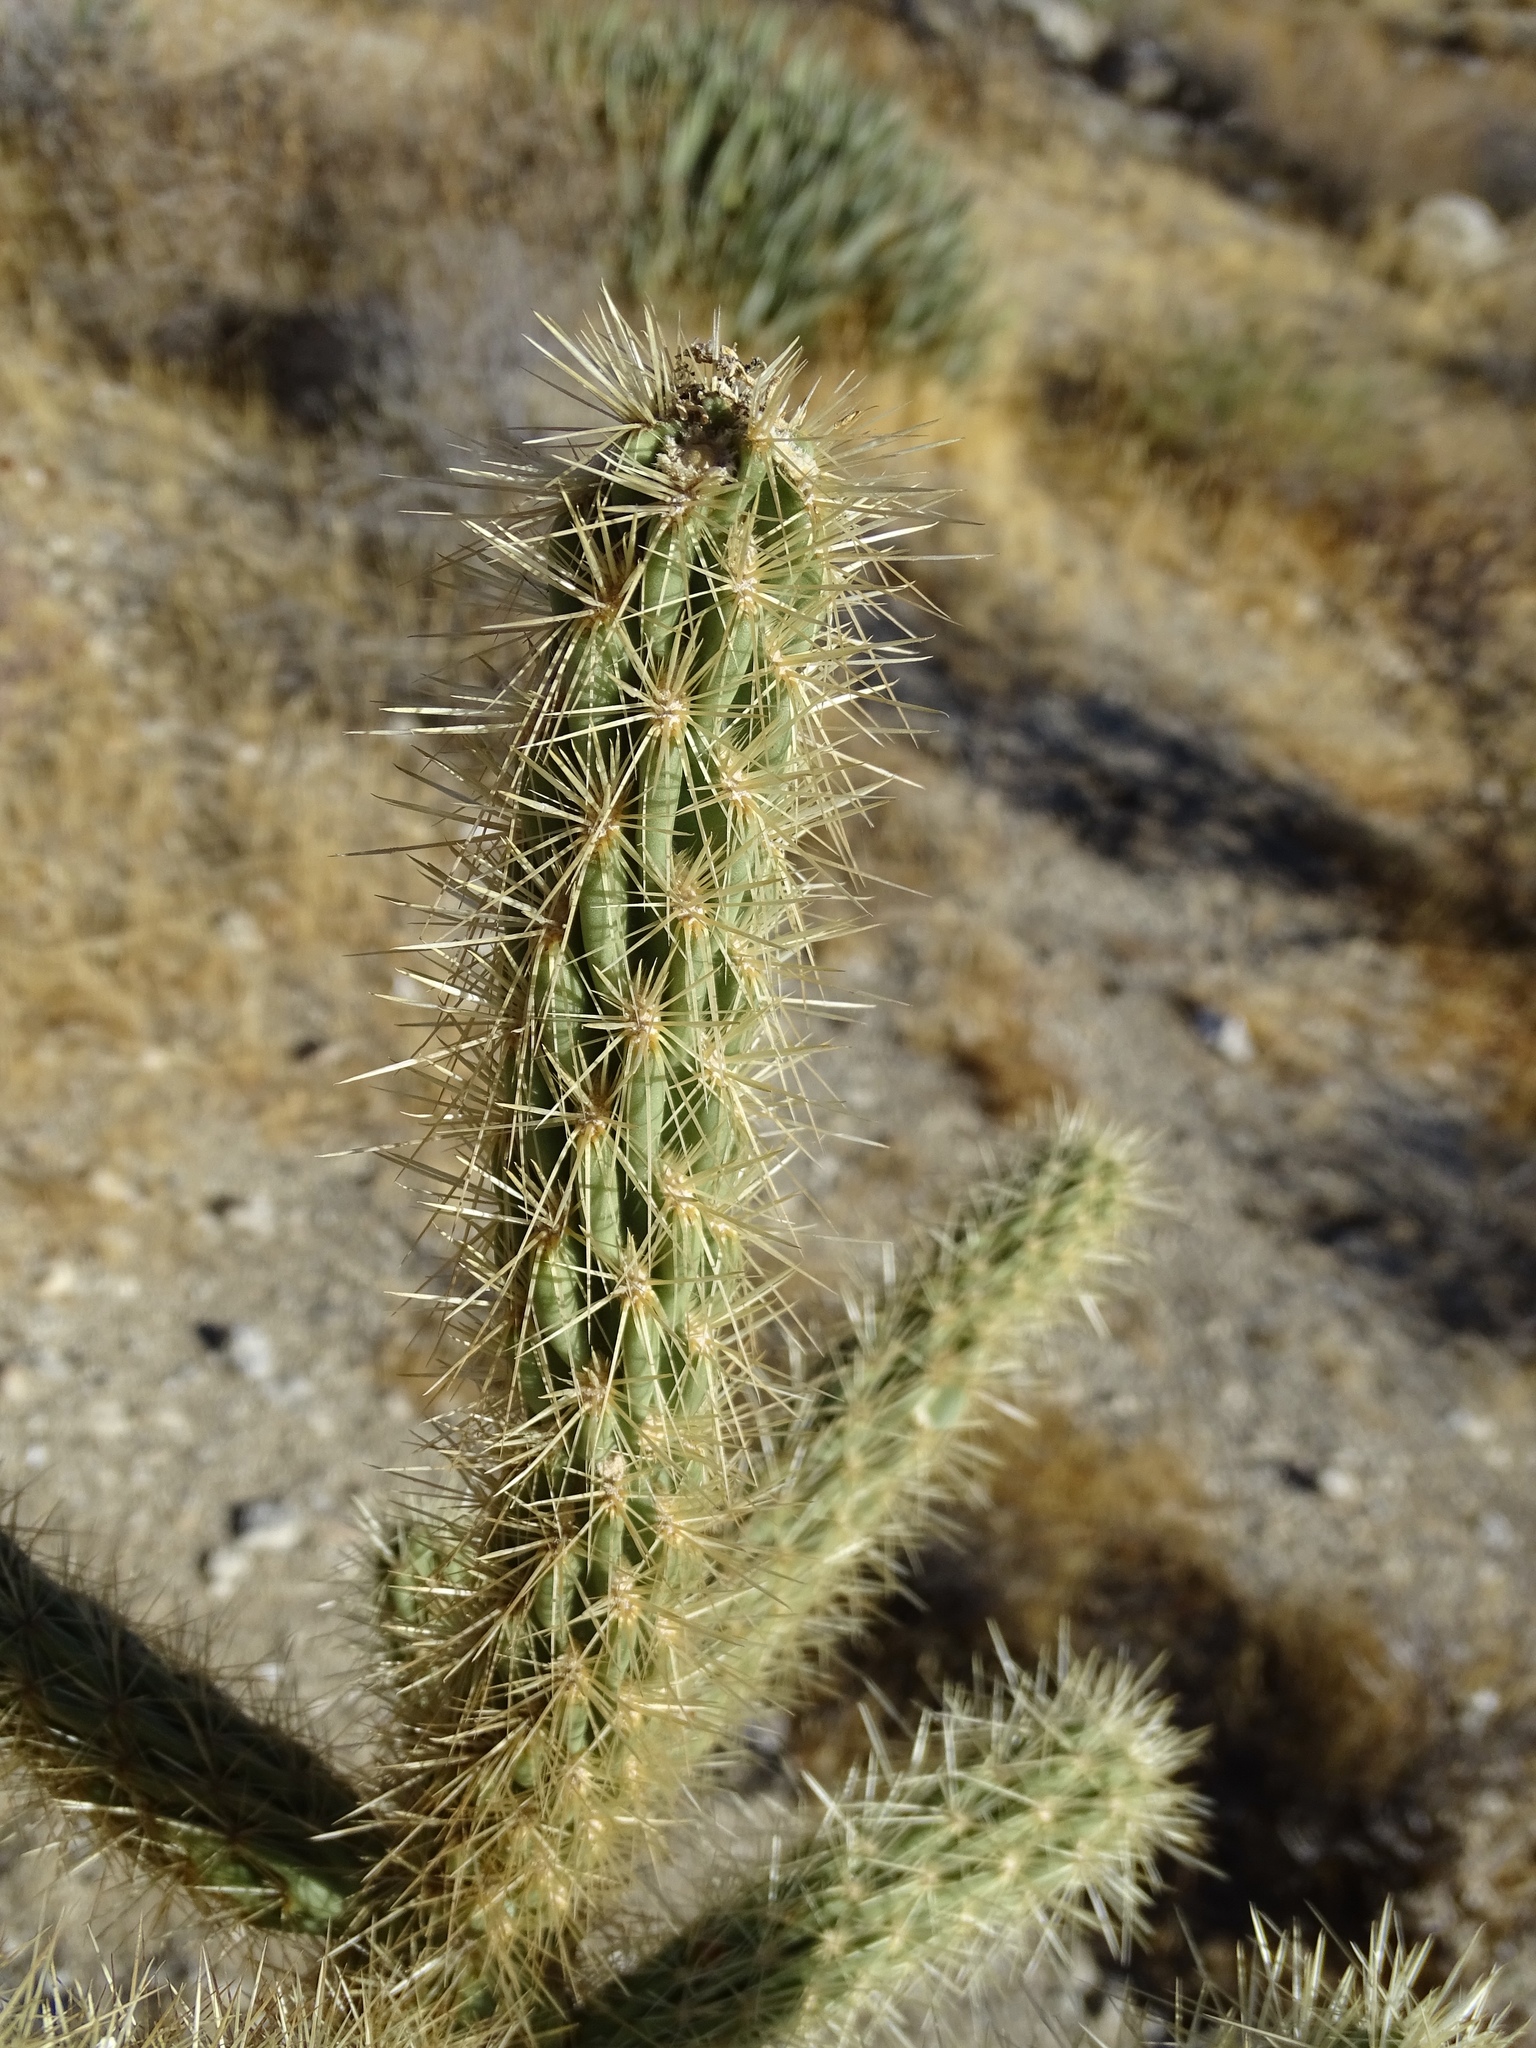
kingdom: Plantae
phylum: Tracheophyta
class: Magnoliopsida
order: Caryophyllales
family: Cactaceae
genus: Cylindropuntia
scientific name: Cylindropuntia ganderi
